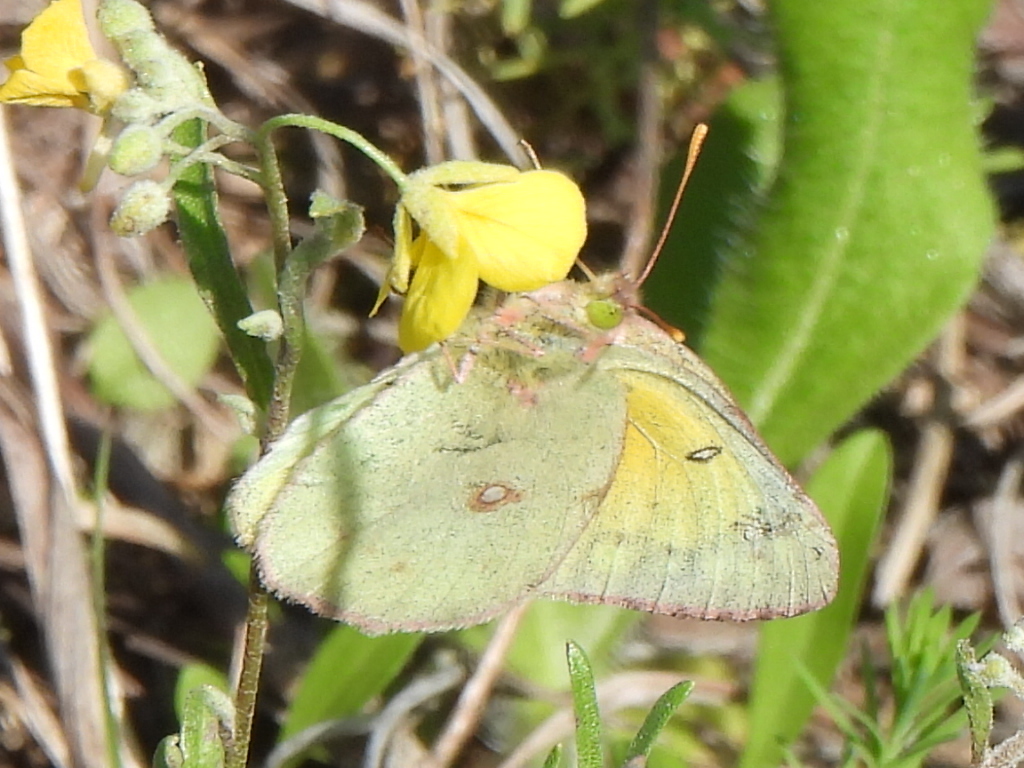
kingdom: Animalia
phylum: Arthropoda
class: Insecta
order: Lepidoptera
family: Pieridae
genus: Colias
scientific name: Colias eurytheme
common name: Alfalfa butterfly
